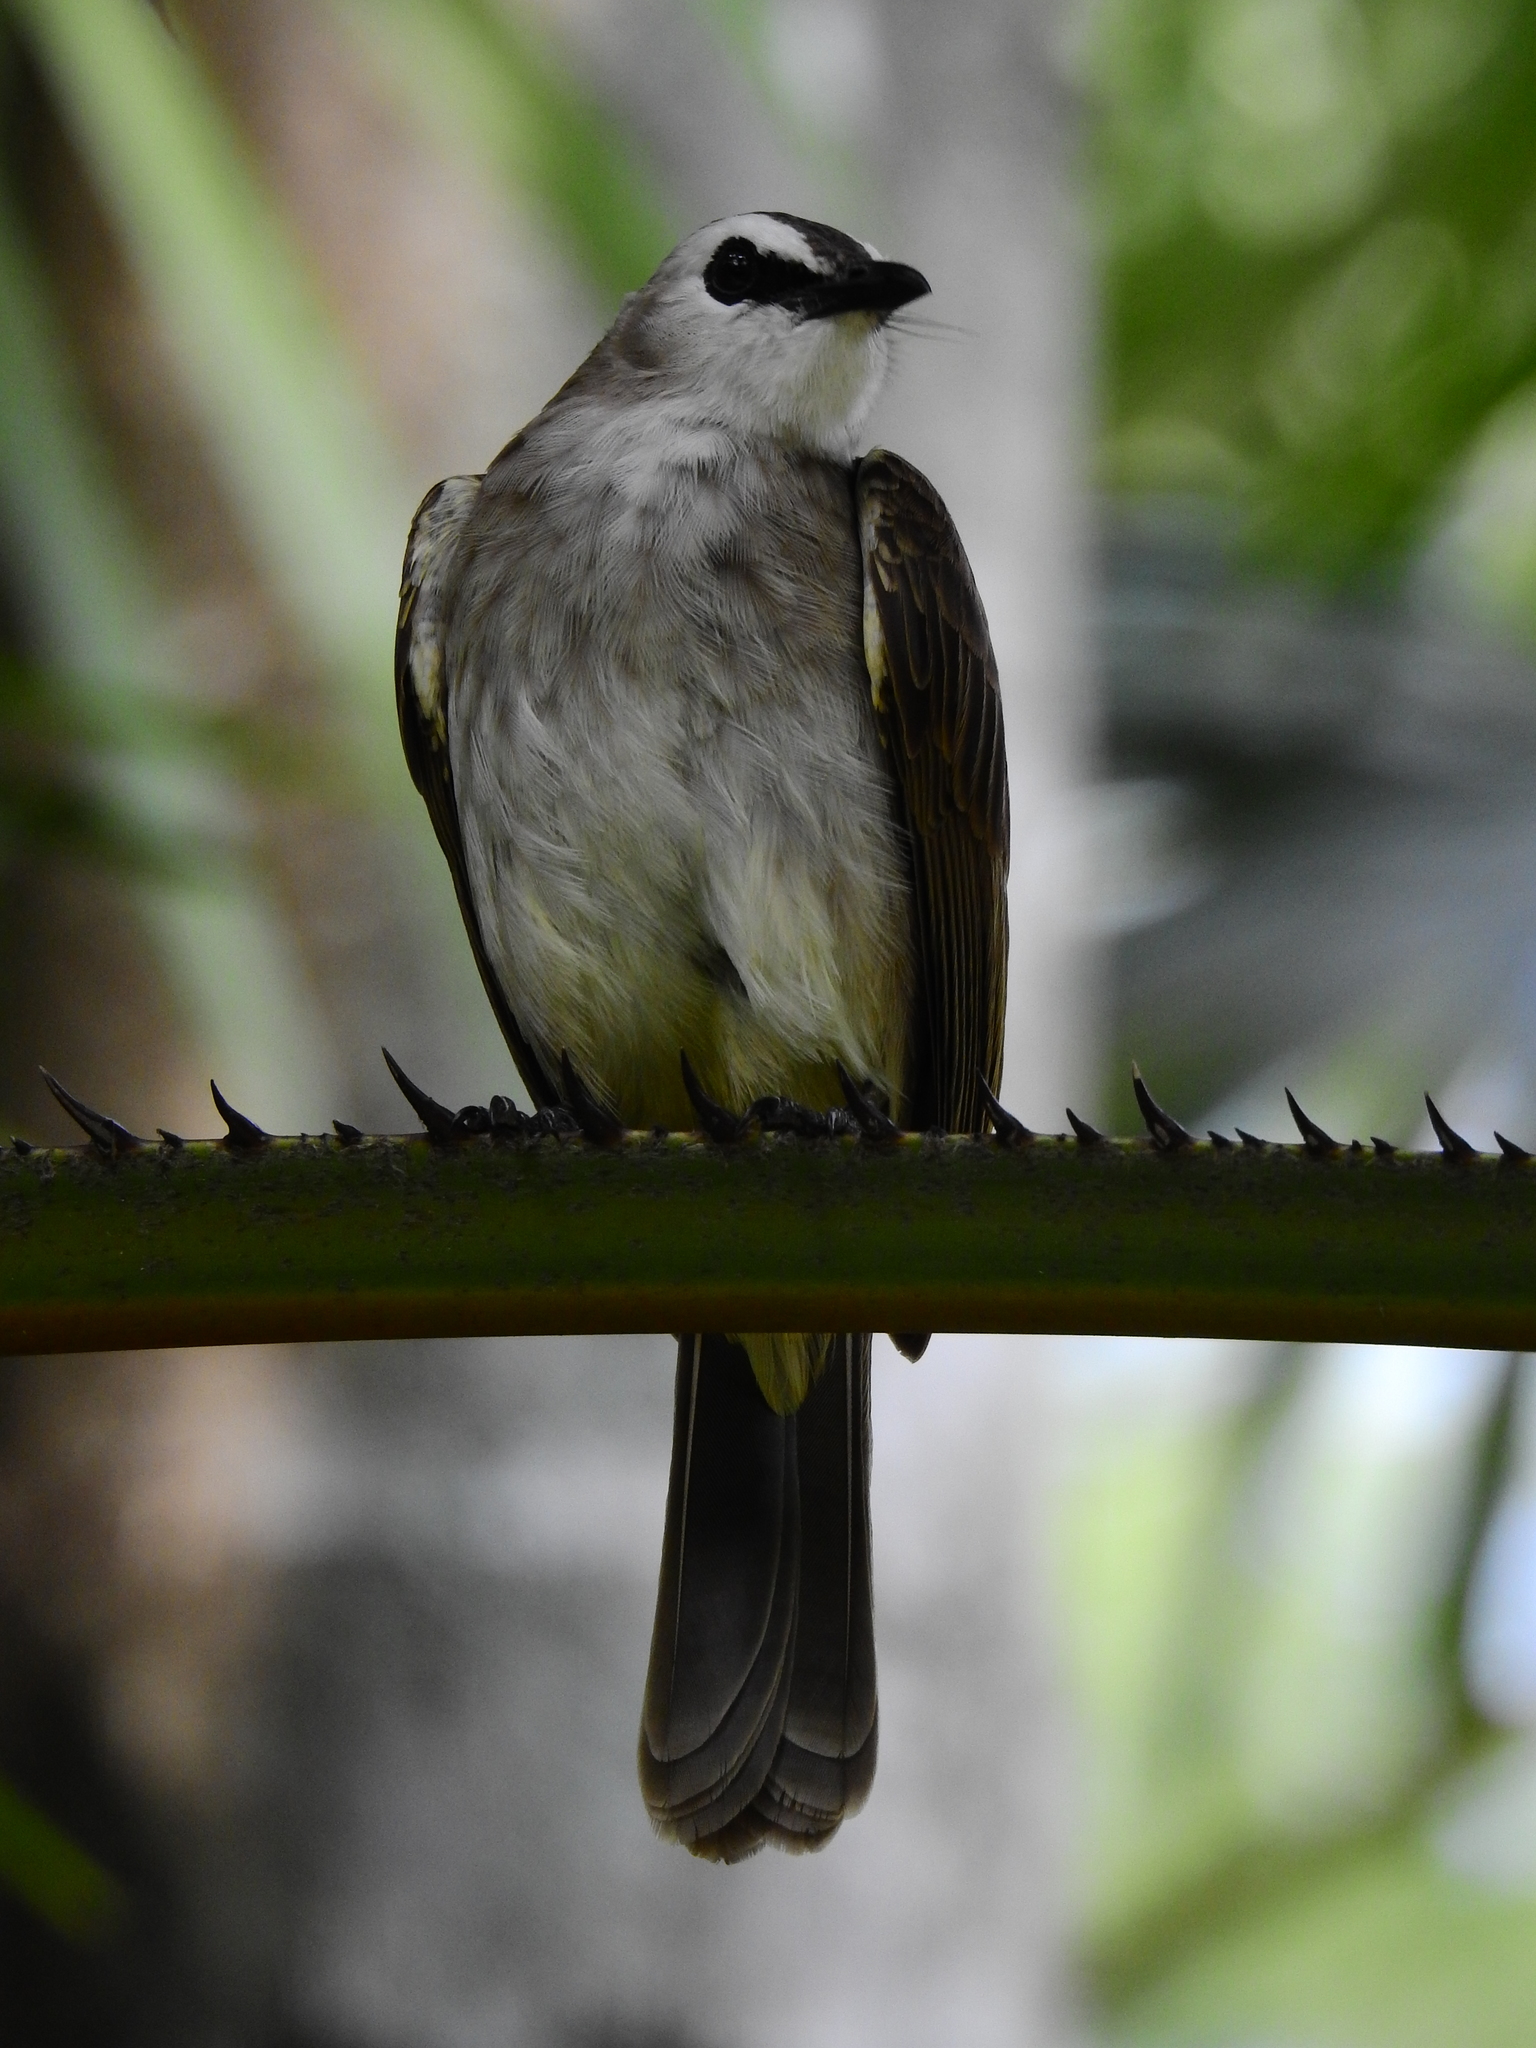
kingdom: Animalia
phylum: Chordata
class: Aves
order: Passeriformes
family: Pycnonotidae
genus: Pycnonotus
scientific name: Pycnonotus goiavier
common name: Yellow-vented bulbul
